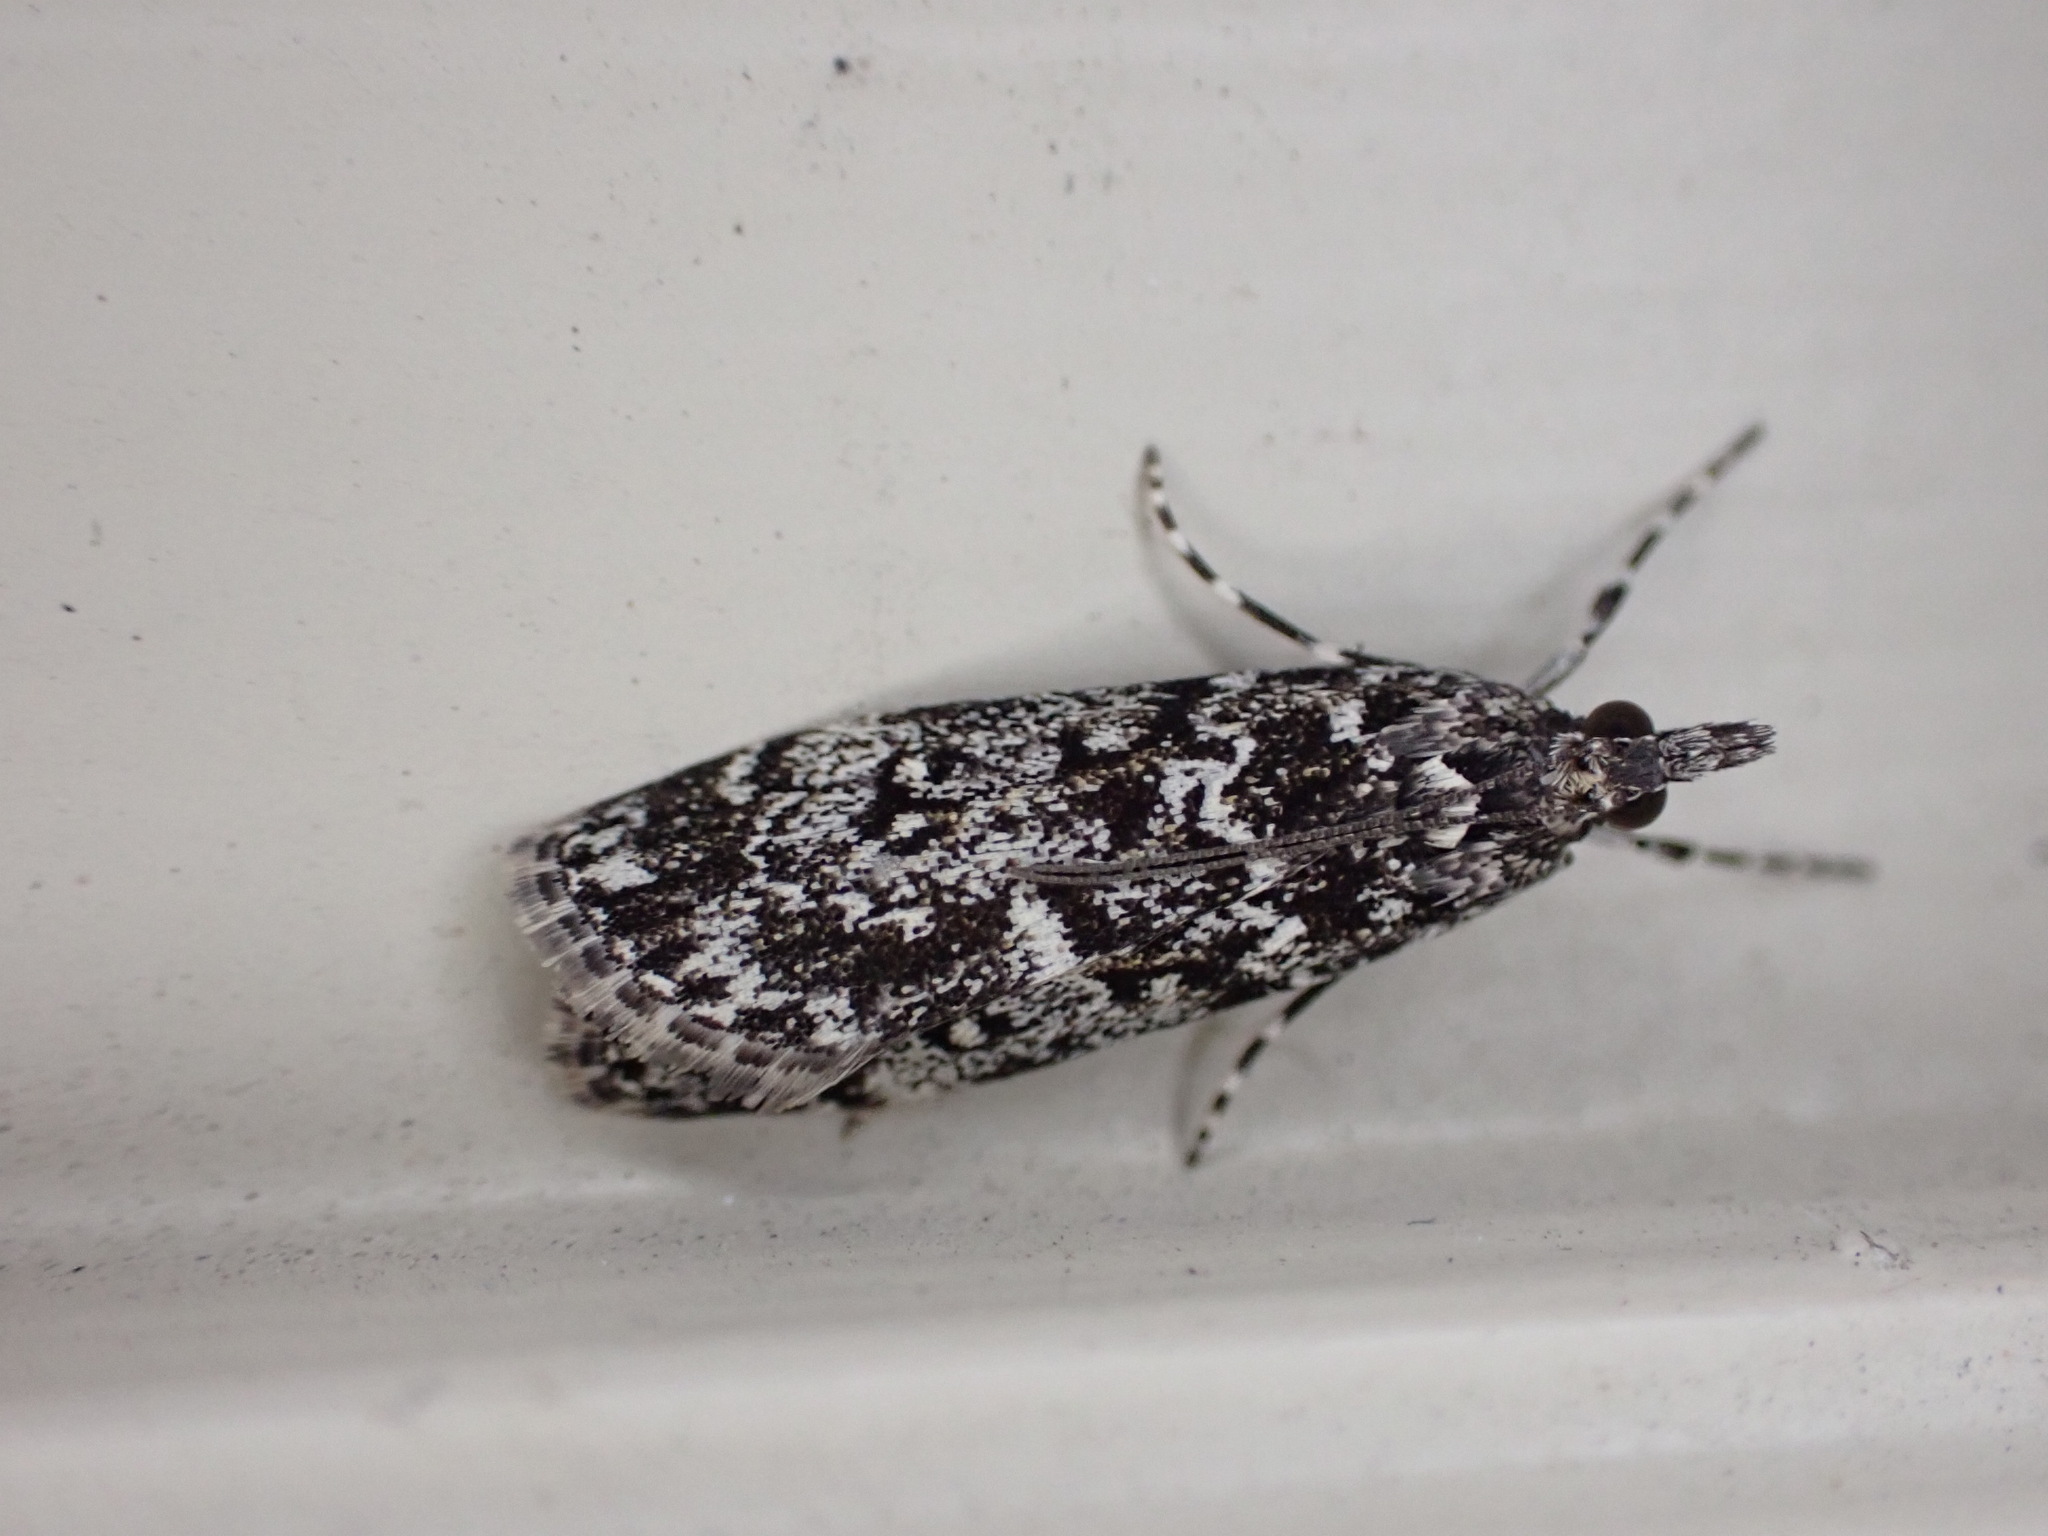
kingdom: Animalia
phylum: Arthropoda
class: Insecta
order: Lepidoptera
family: Crambidae
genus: Eudonia
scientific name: Eudonia philerga
